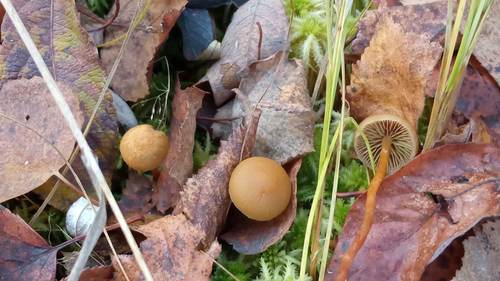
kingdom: Fungi
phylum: Basidiomycota
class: Agaricomycetes
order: Agaricales
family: Strophariaceae
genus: Hypholoma
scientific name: Hypholoma
